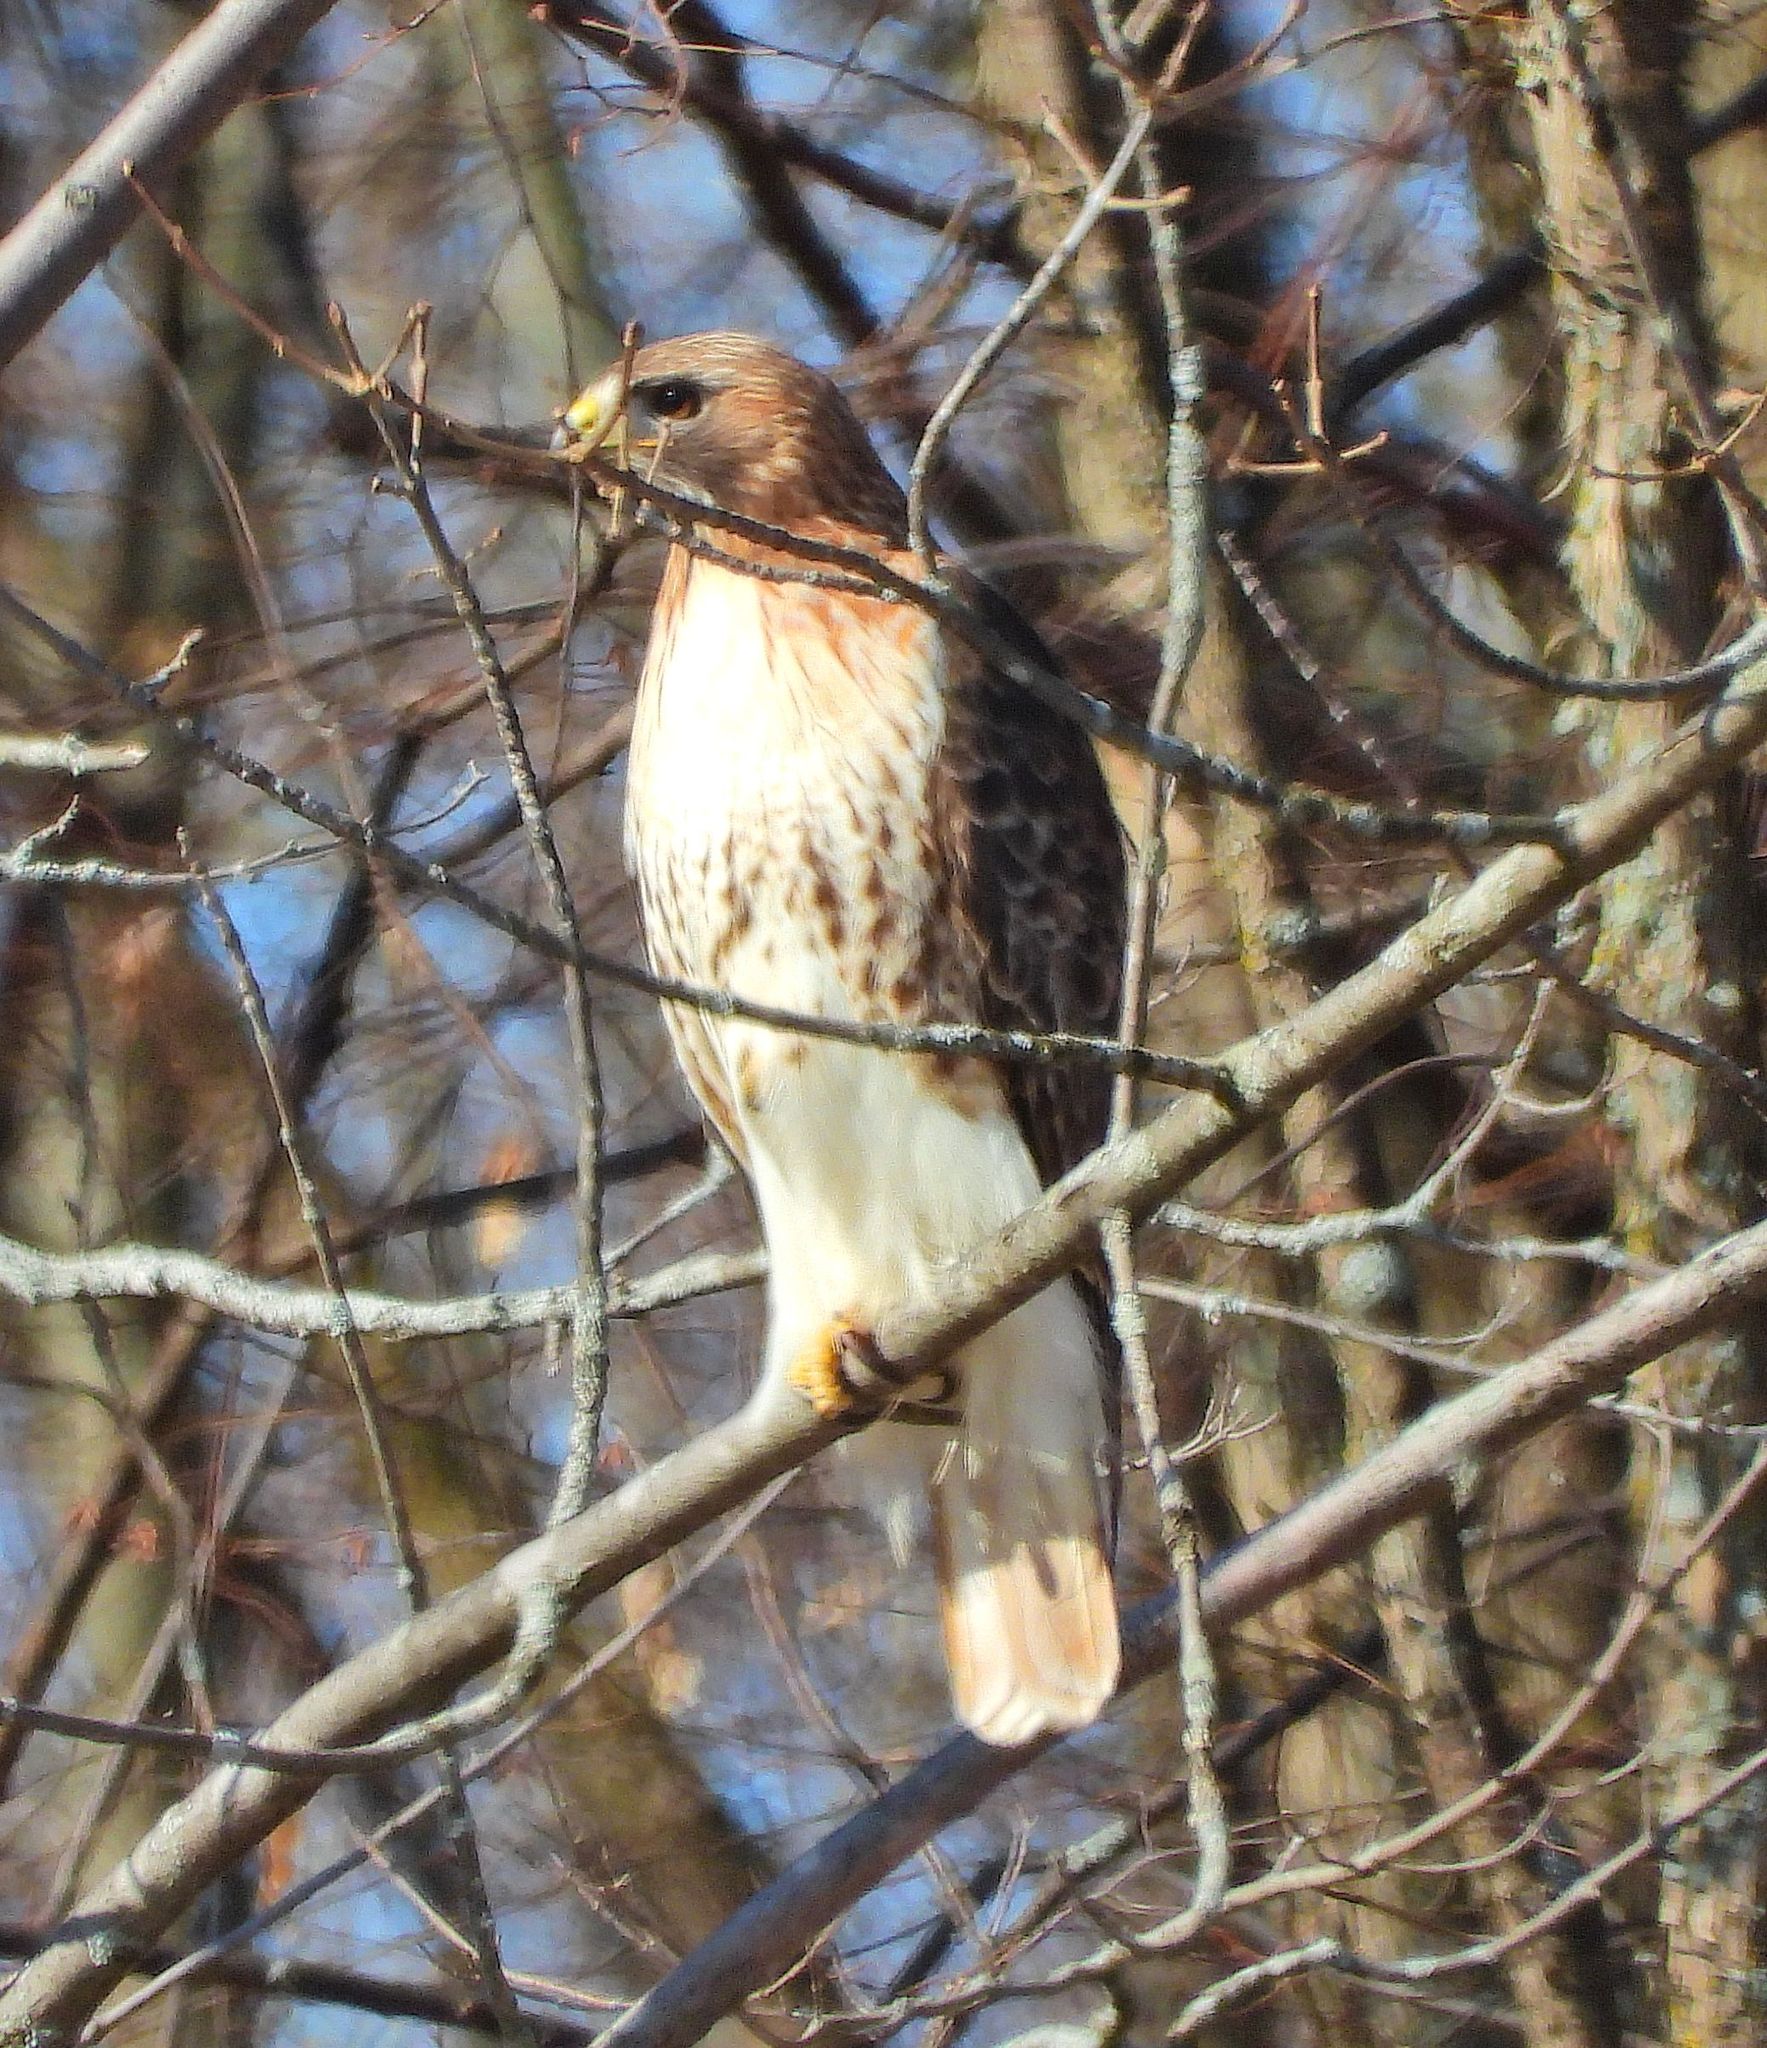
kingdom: Animalia
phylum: Chordata
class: Aves
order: Accipitriformes
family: Accipitridae
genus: Buteo
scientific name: Buteo jamaicensis
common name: Red-tailed hawk
